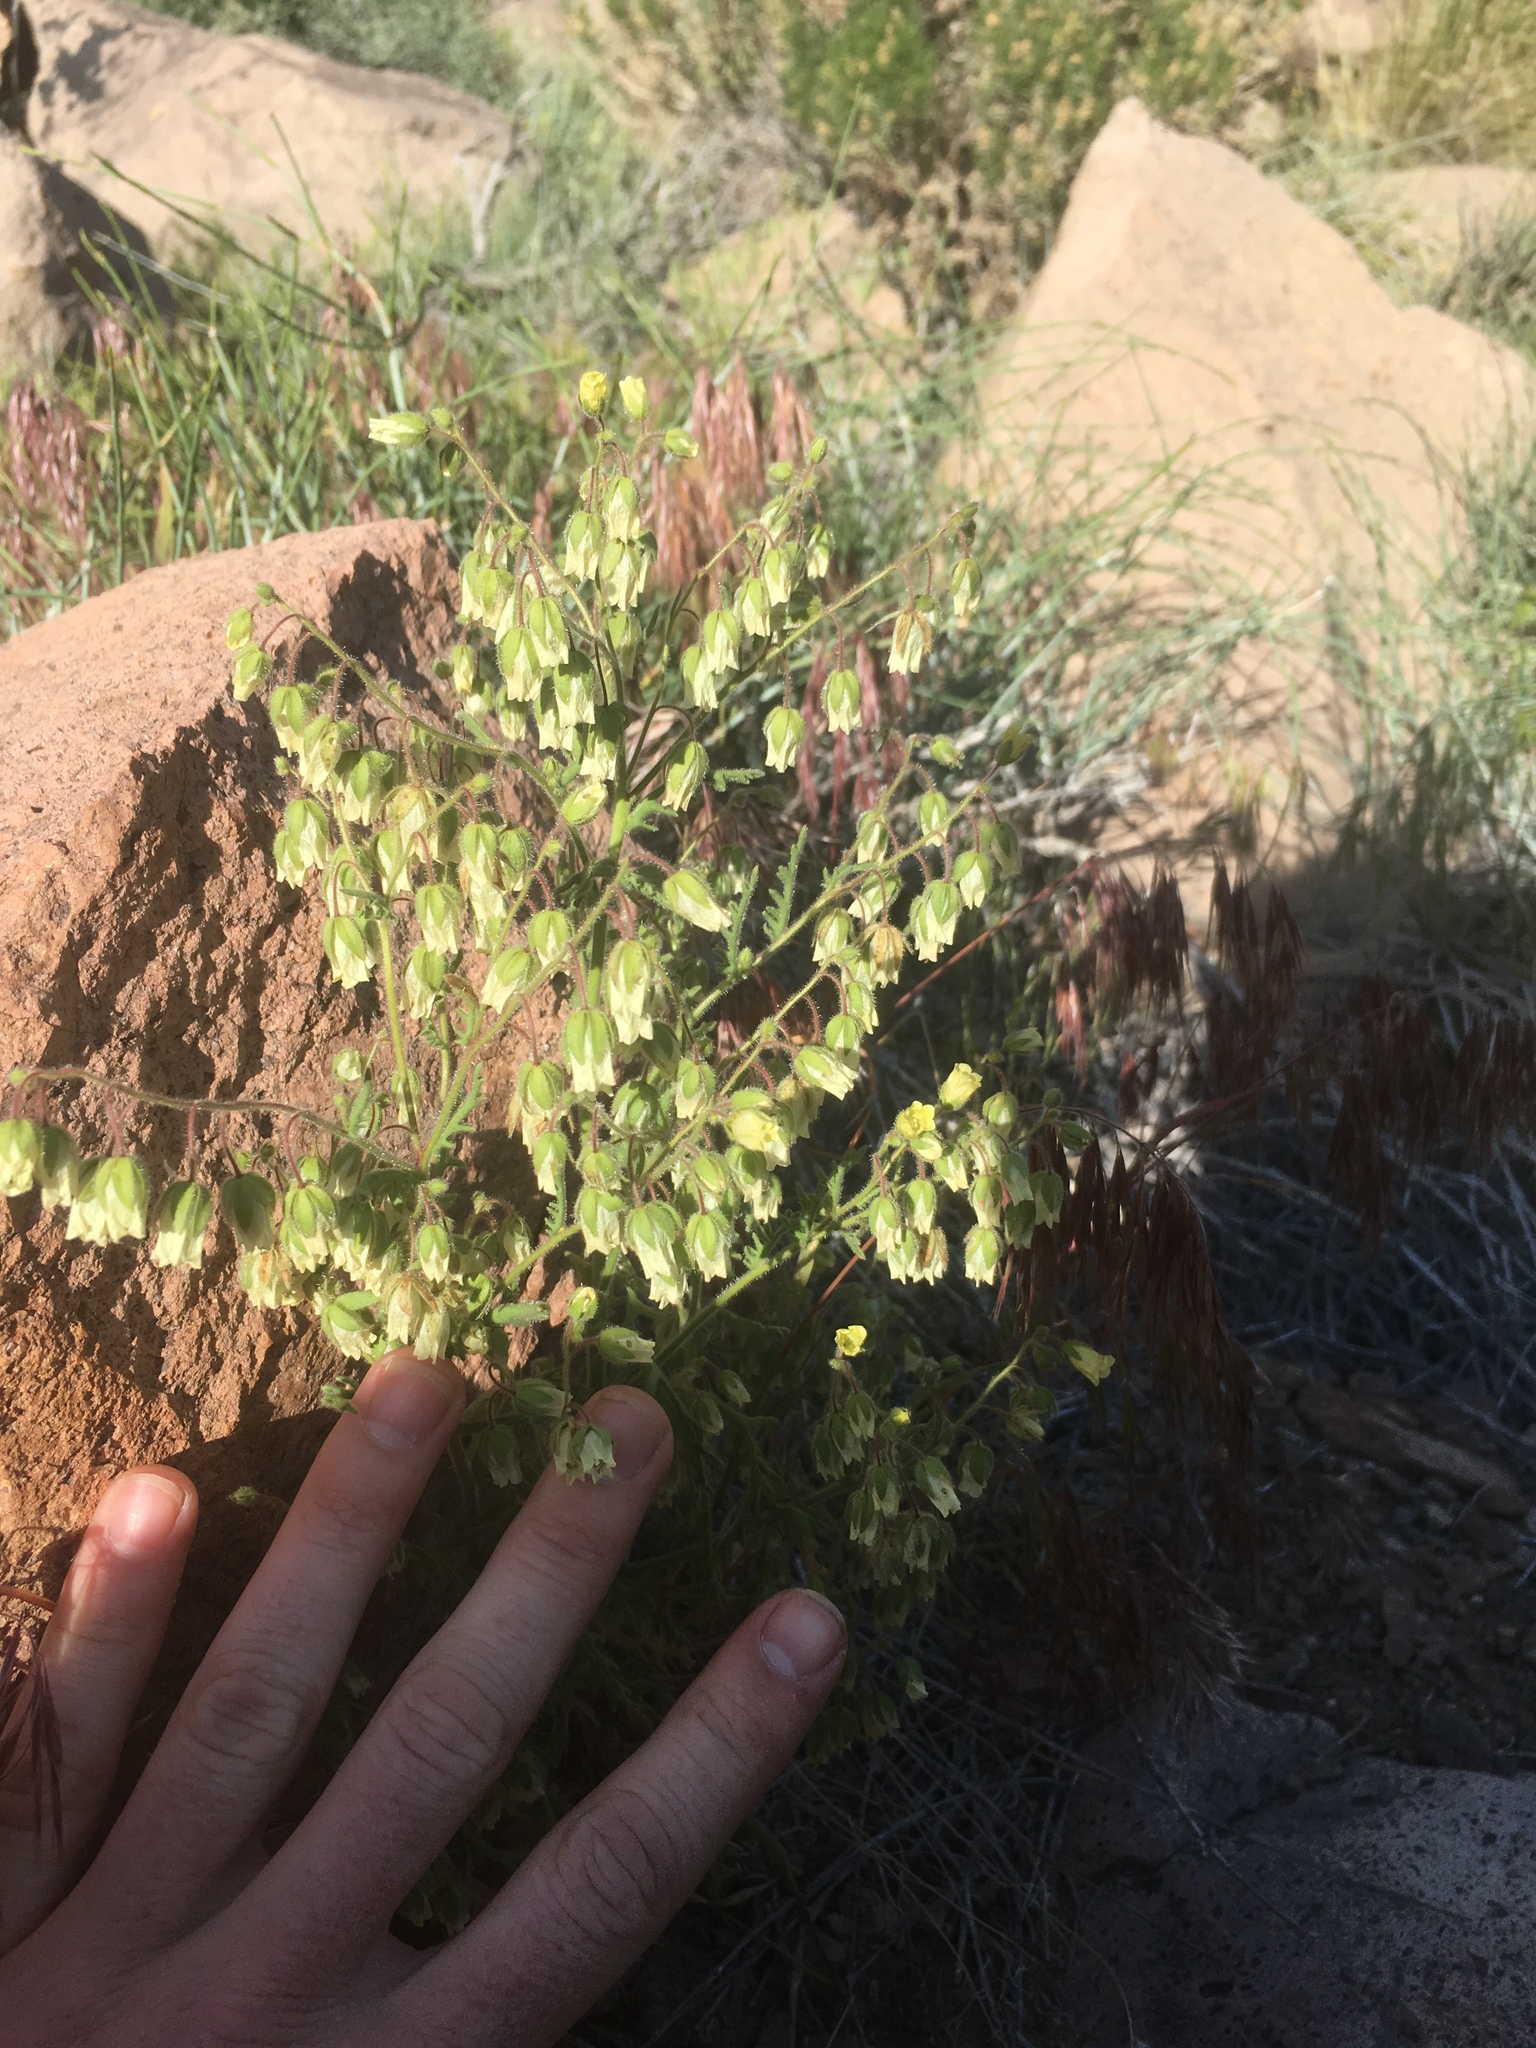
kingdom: Plantae
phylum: Tracheophyta
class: Magnoliopsida
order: Boraginales
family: Hydrophyllaceae
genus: Emmenanthe
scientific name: Emmenanthe penduliflora
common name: Whispering-bells
